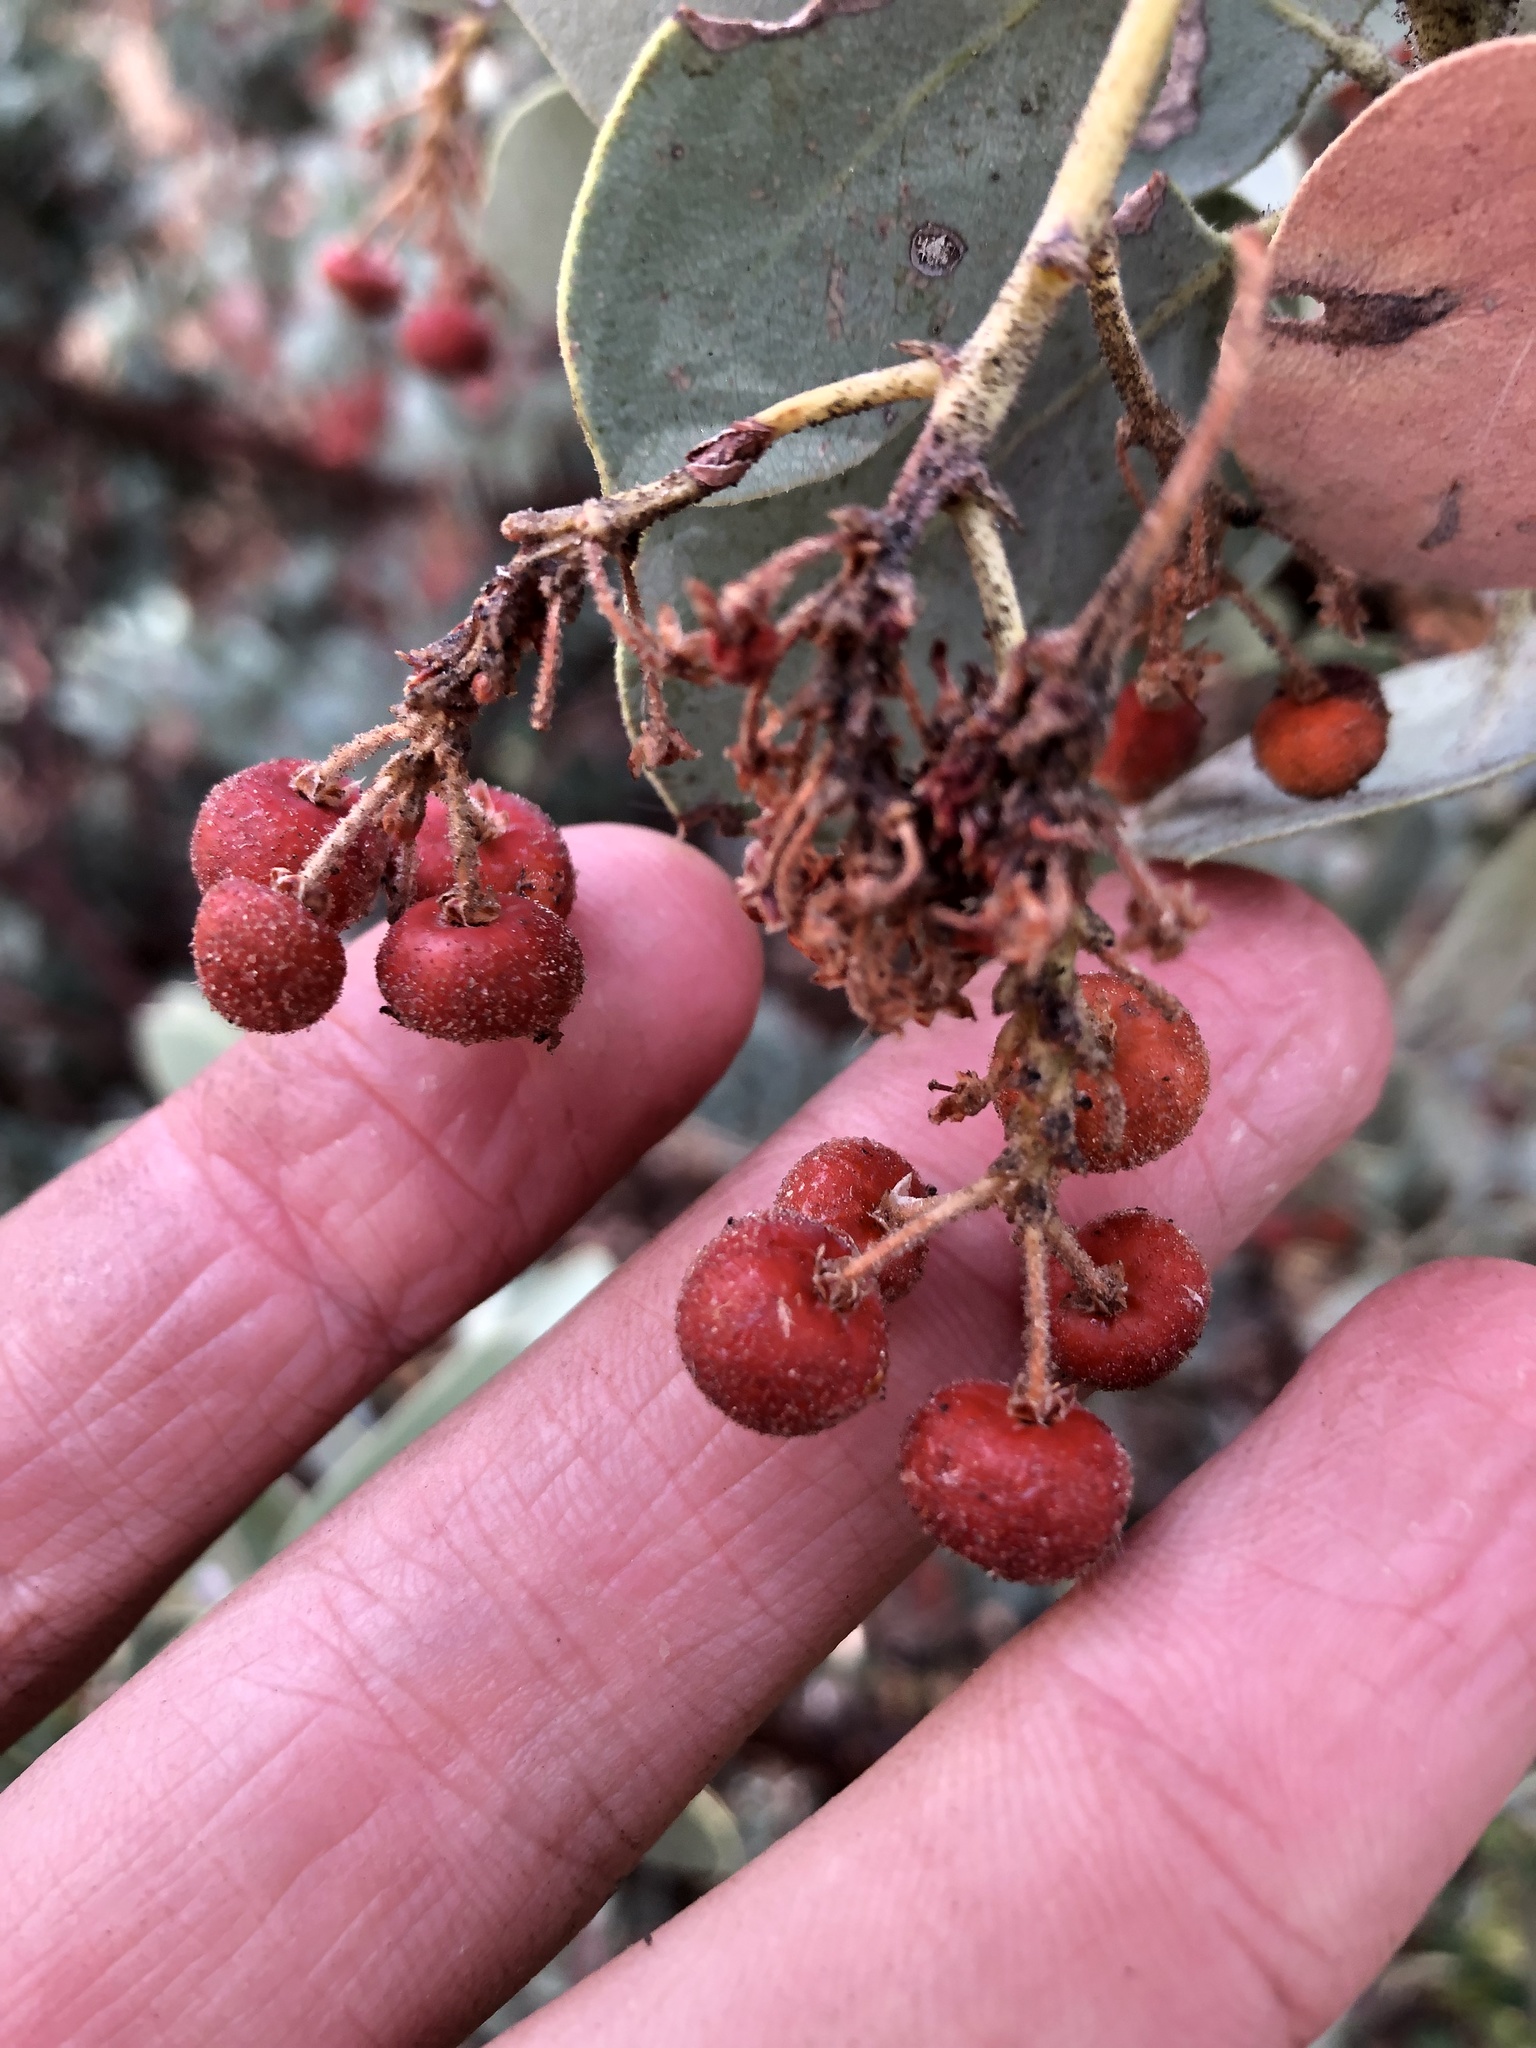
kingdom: Plantae
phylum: Tracheophyta
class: Magnoliopsida
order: Ericales
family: Ericaceae
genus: Arctostaphylos
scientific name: Arctostaphylos viscida
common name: White-leaf manzanita
